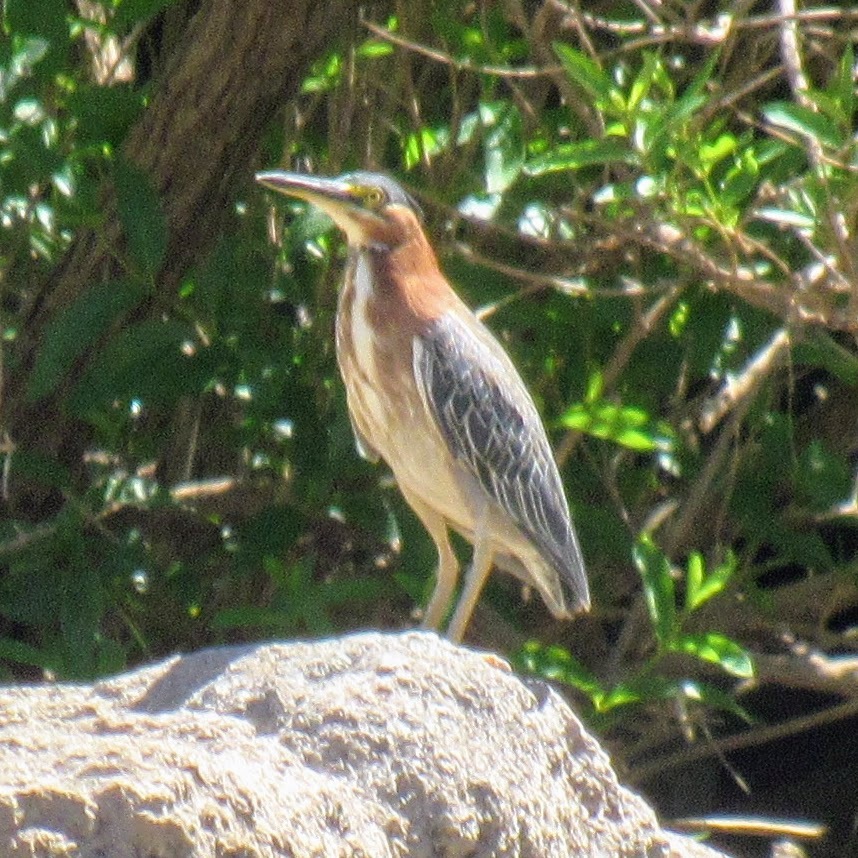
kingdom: Animalia
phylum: Chordata
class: Aves
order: Pelecaniformes
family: Ardeidae
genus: Butorides
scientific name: Butorides virescens
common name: Green heron
